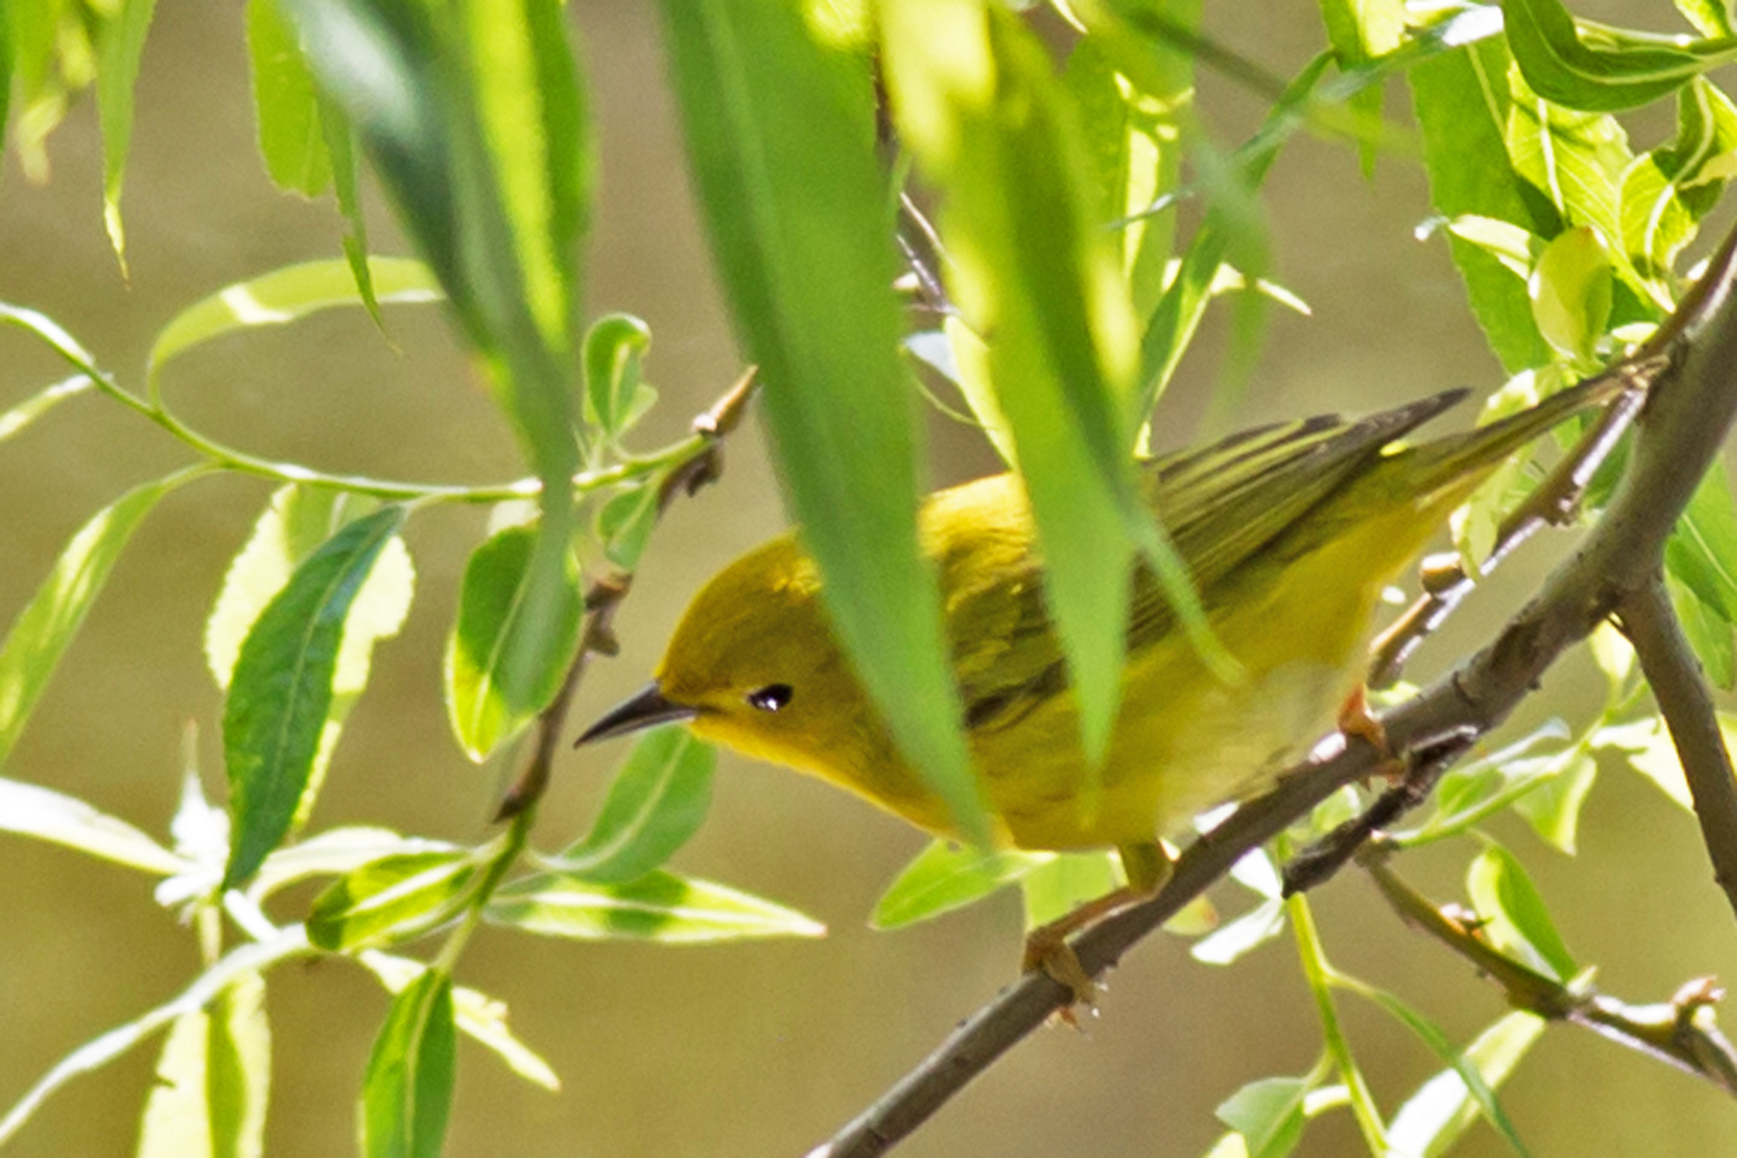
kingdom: Animalia
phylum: Chordata
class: Aves
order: Passeriformes
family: Parulidae
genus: Setophaga
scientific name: Setophaga petechia
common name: Yellow warbler
